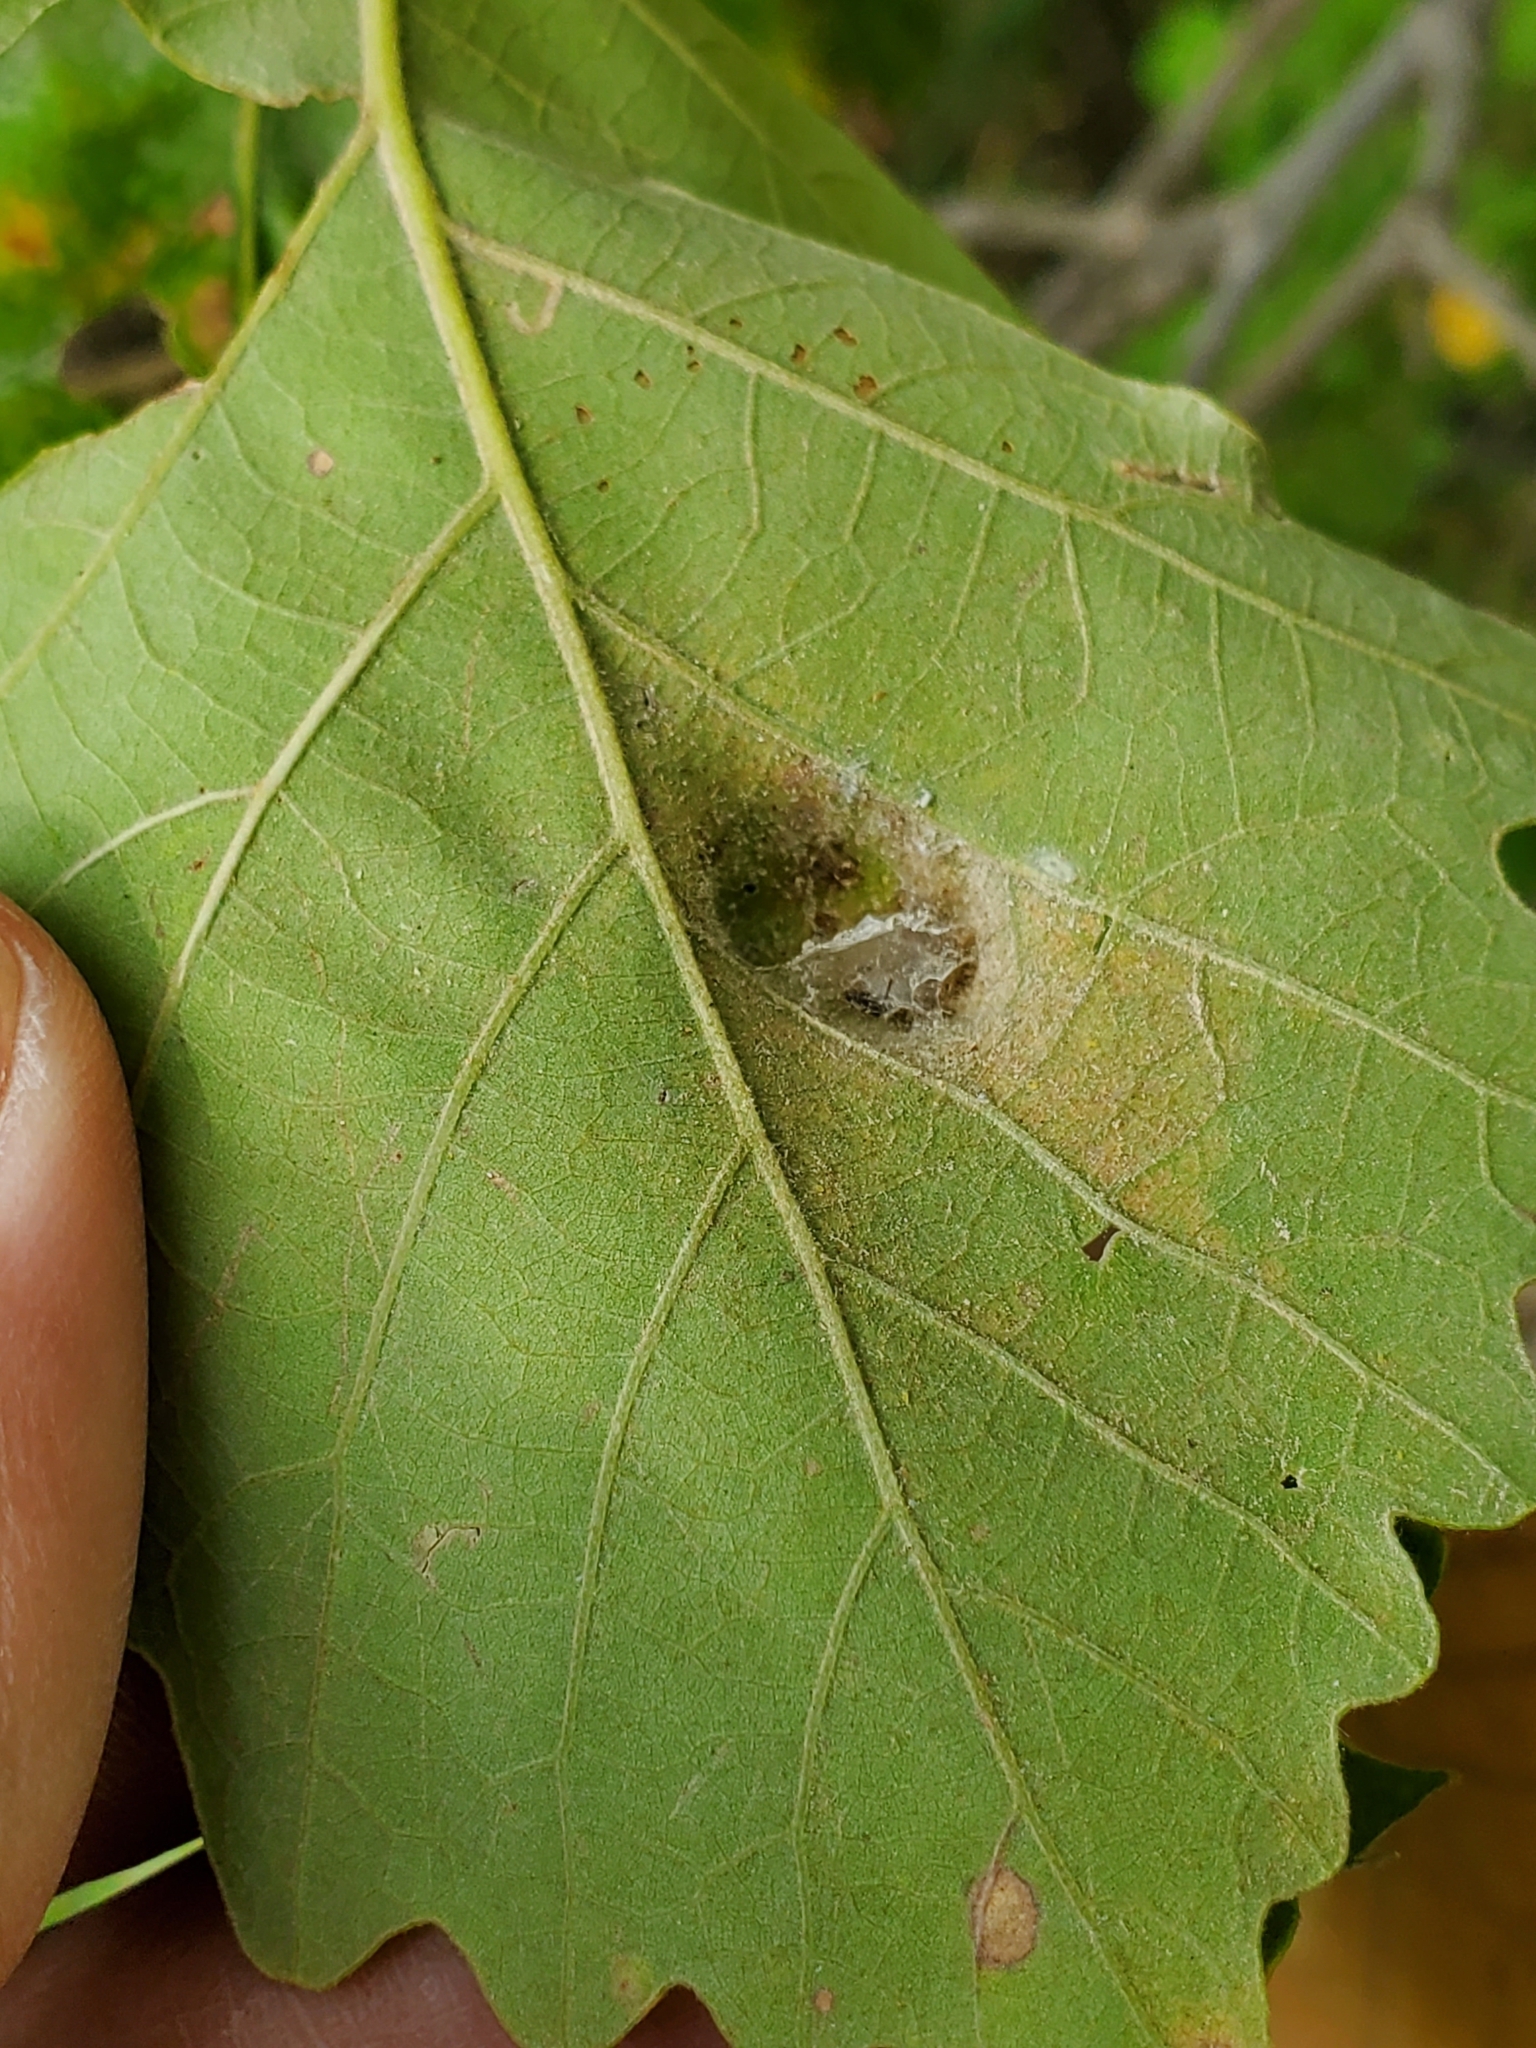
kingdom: Animalia
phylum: Arthropoda
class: Arachnida
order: Trombidiformes
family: Eriophyidae
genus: Aceria
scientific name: Aceria quercina
